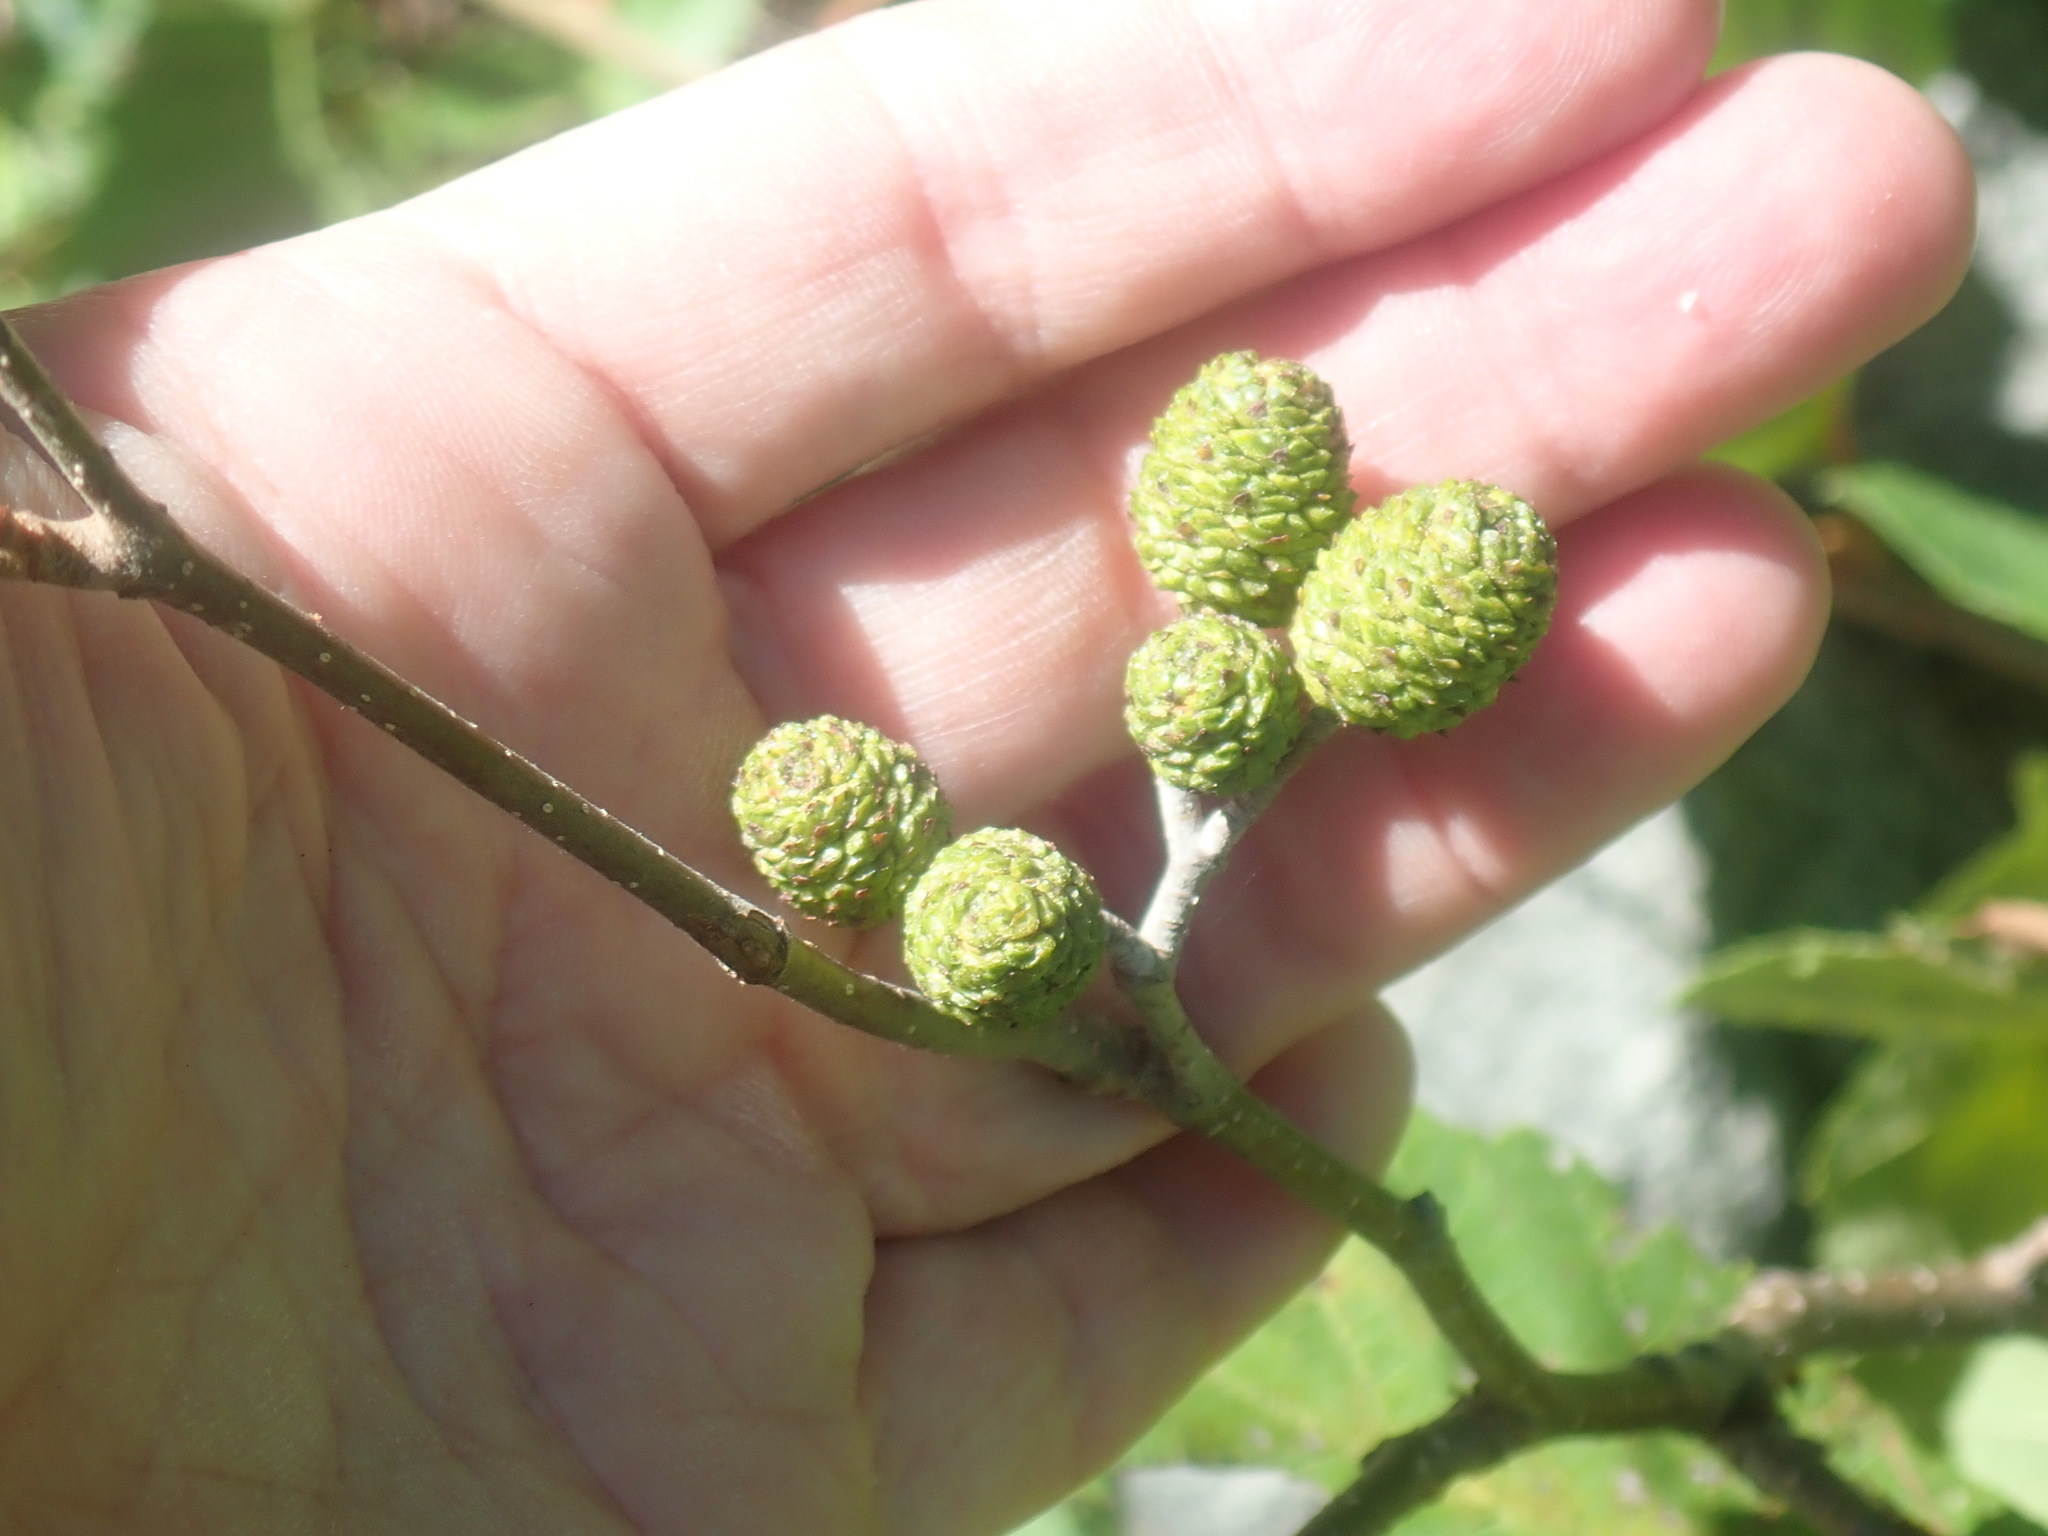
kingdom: Plantae
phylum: Tracheophyta
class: Magnoliopsida
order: Fagales
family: Betulaceae
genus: Alnus
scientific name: Alnus
